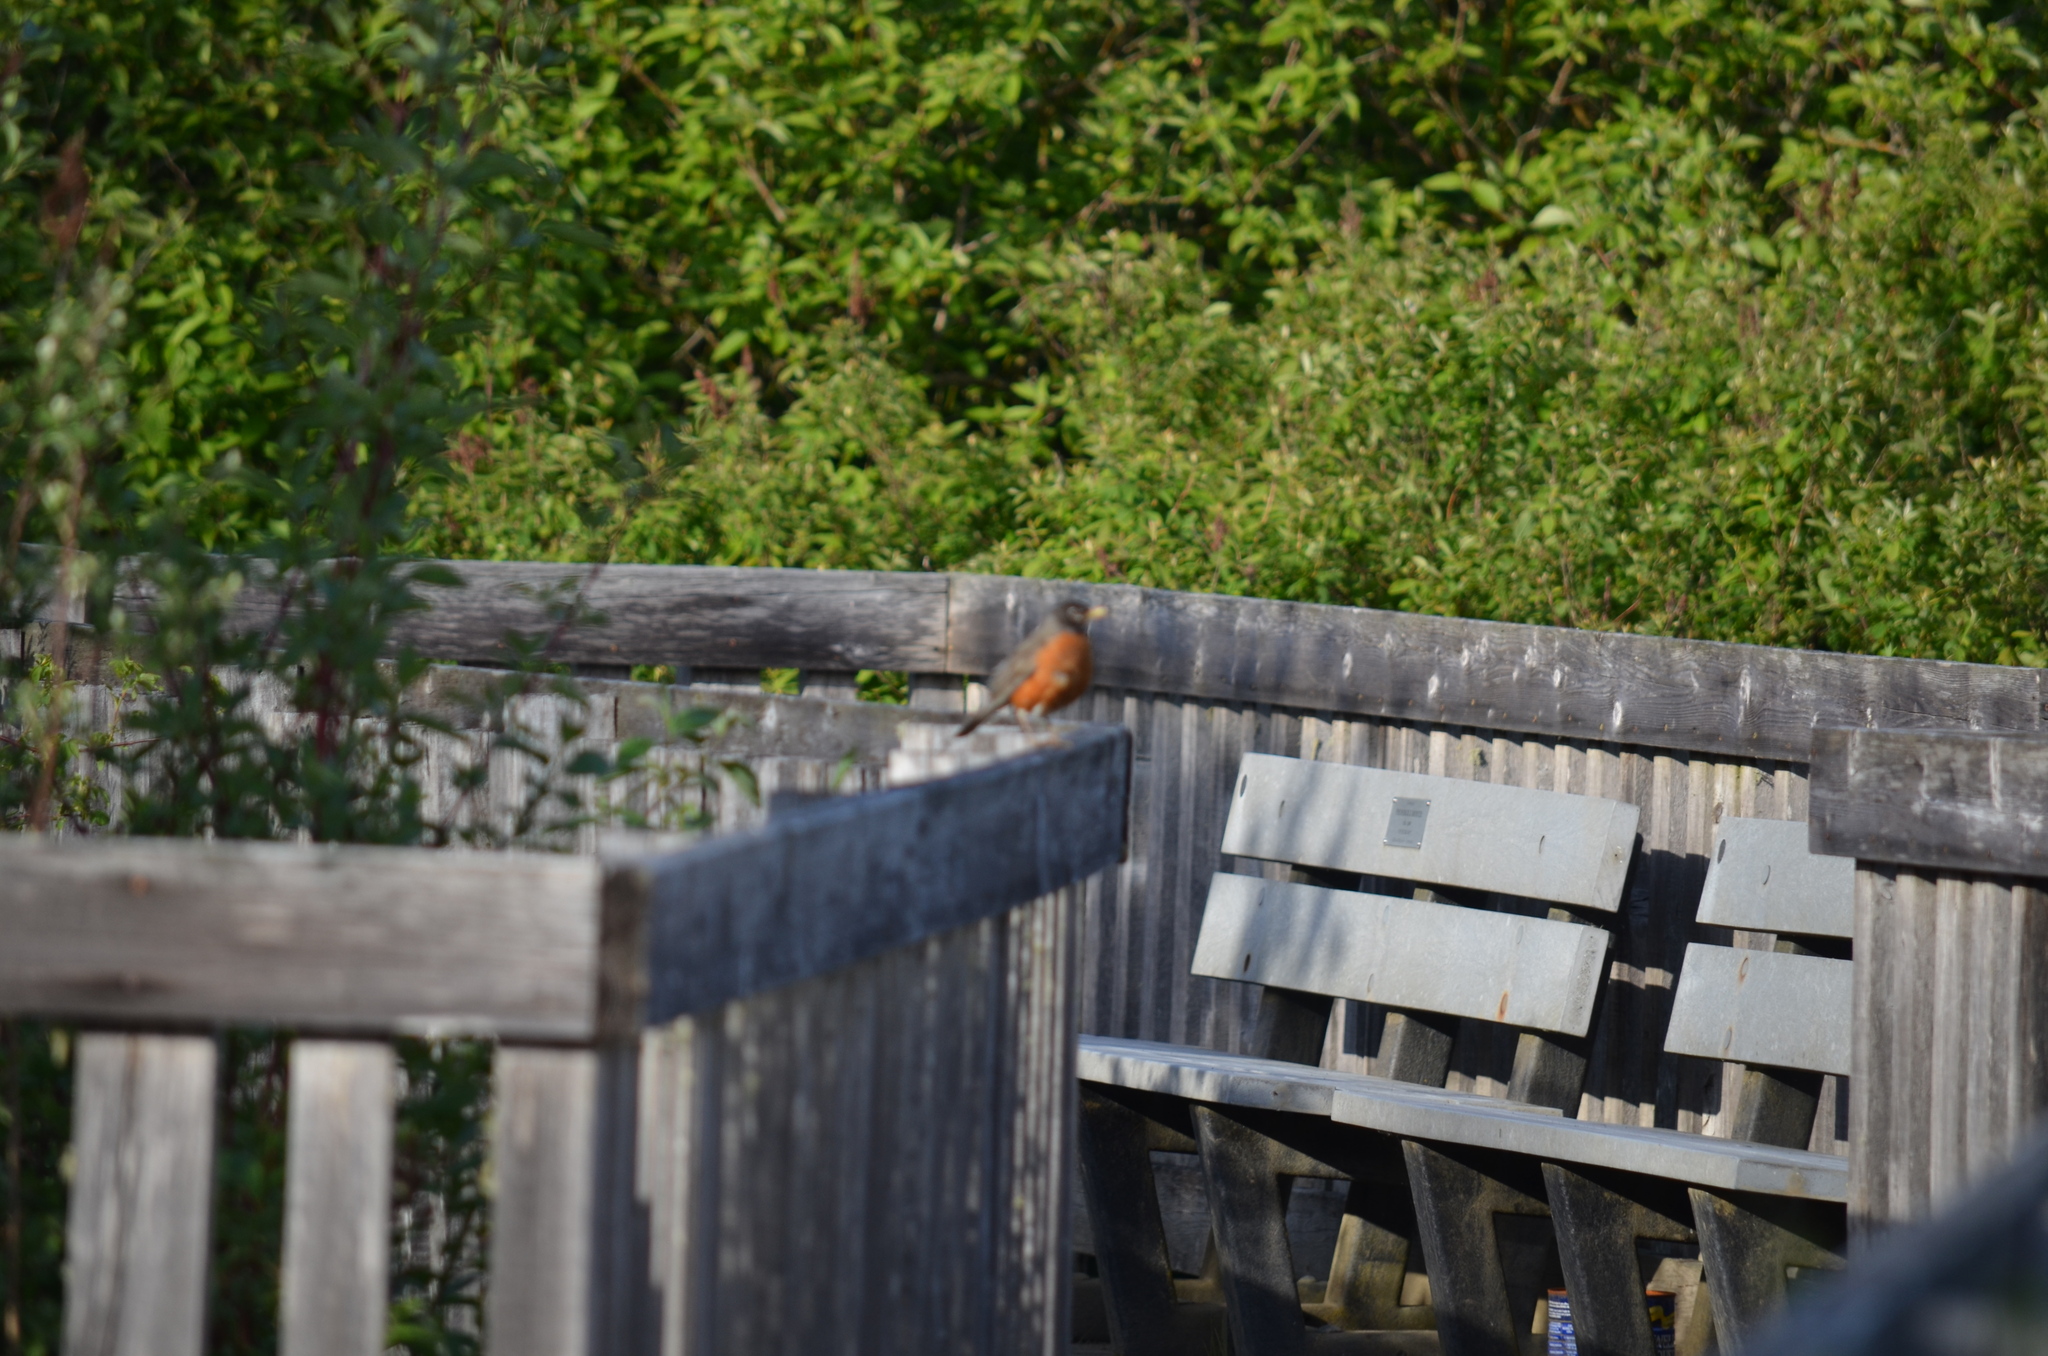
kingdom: Animalia
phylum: Chordata
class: Aves
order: Passeriformes
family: Turdidae
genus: Turdus
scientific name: Turdus migratorius
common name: American robin
